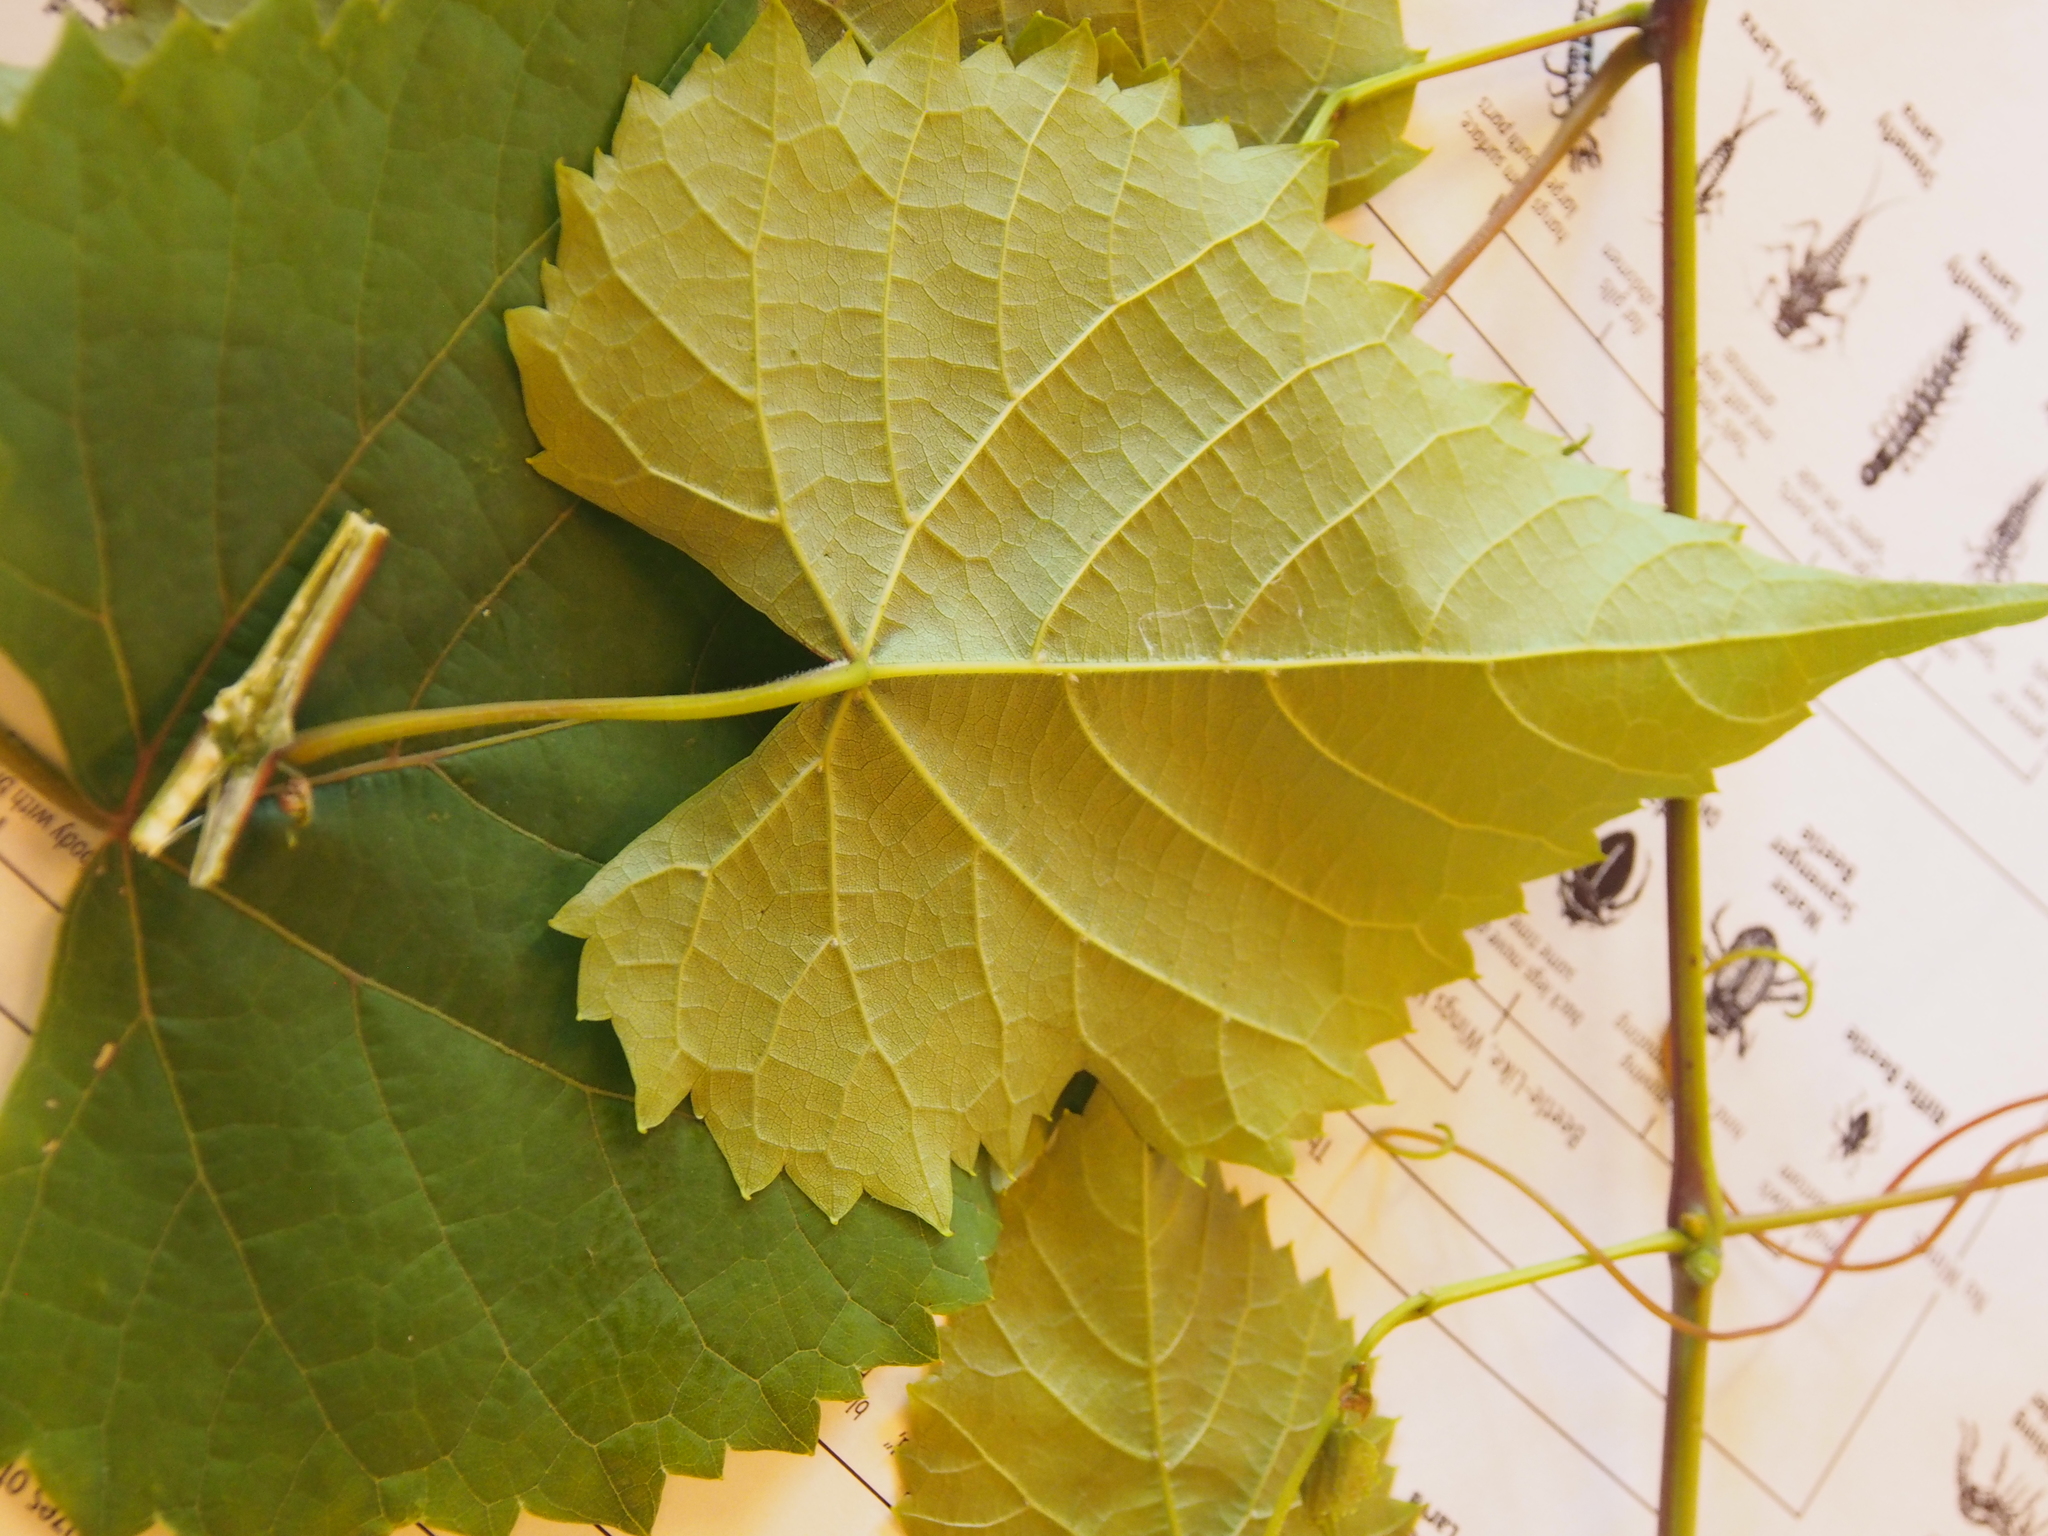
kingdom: Plantae
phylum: Tracheophyta
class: Magnoliopsida
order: Vitales
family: Vitaceae
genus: Vitis
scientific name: Vitis vulpina
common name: Frost grape
